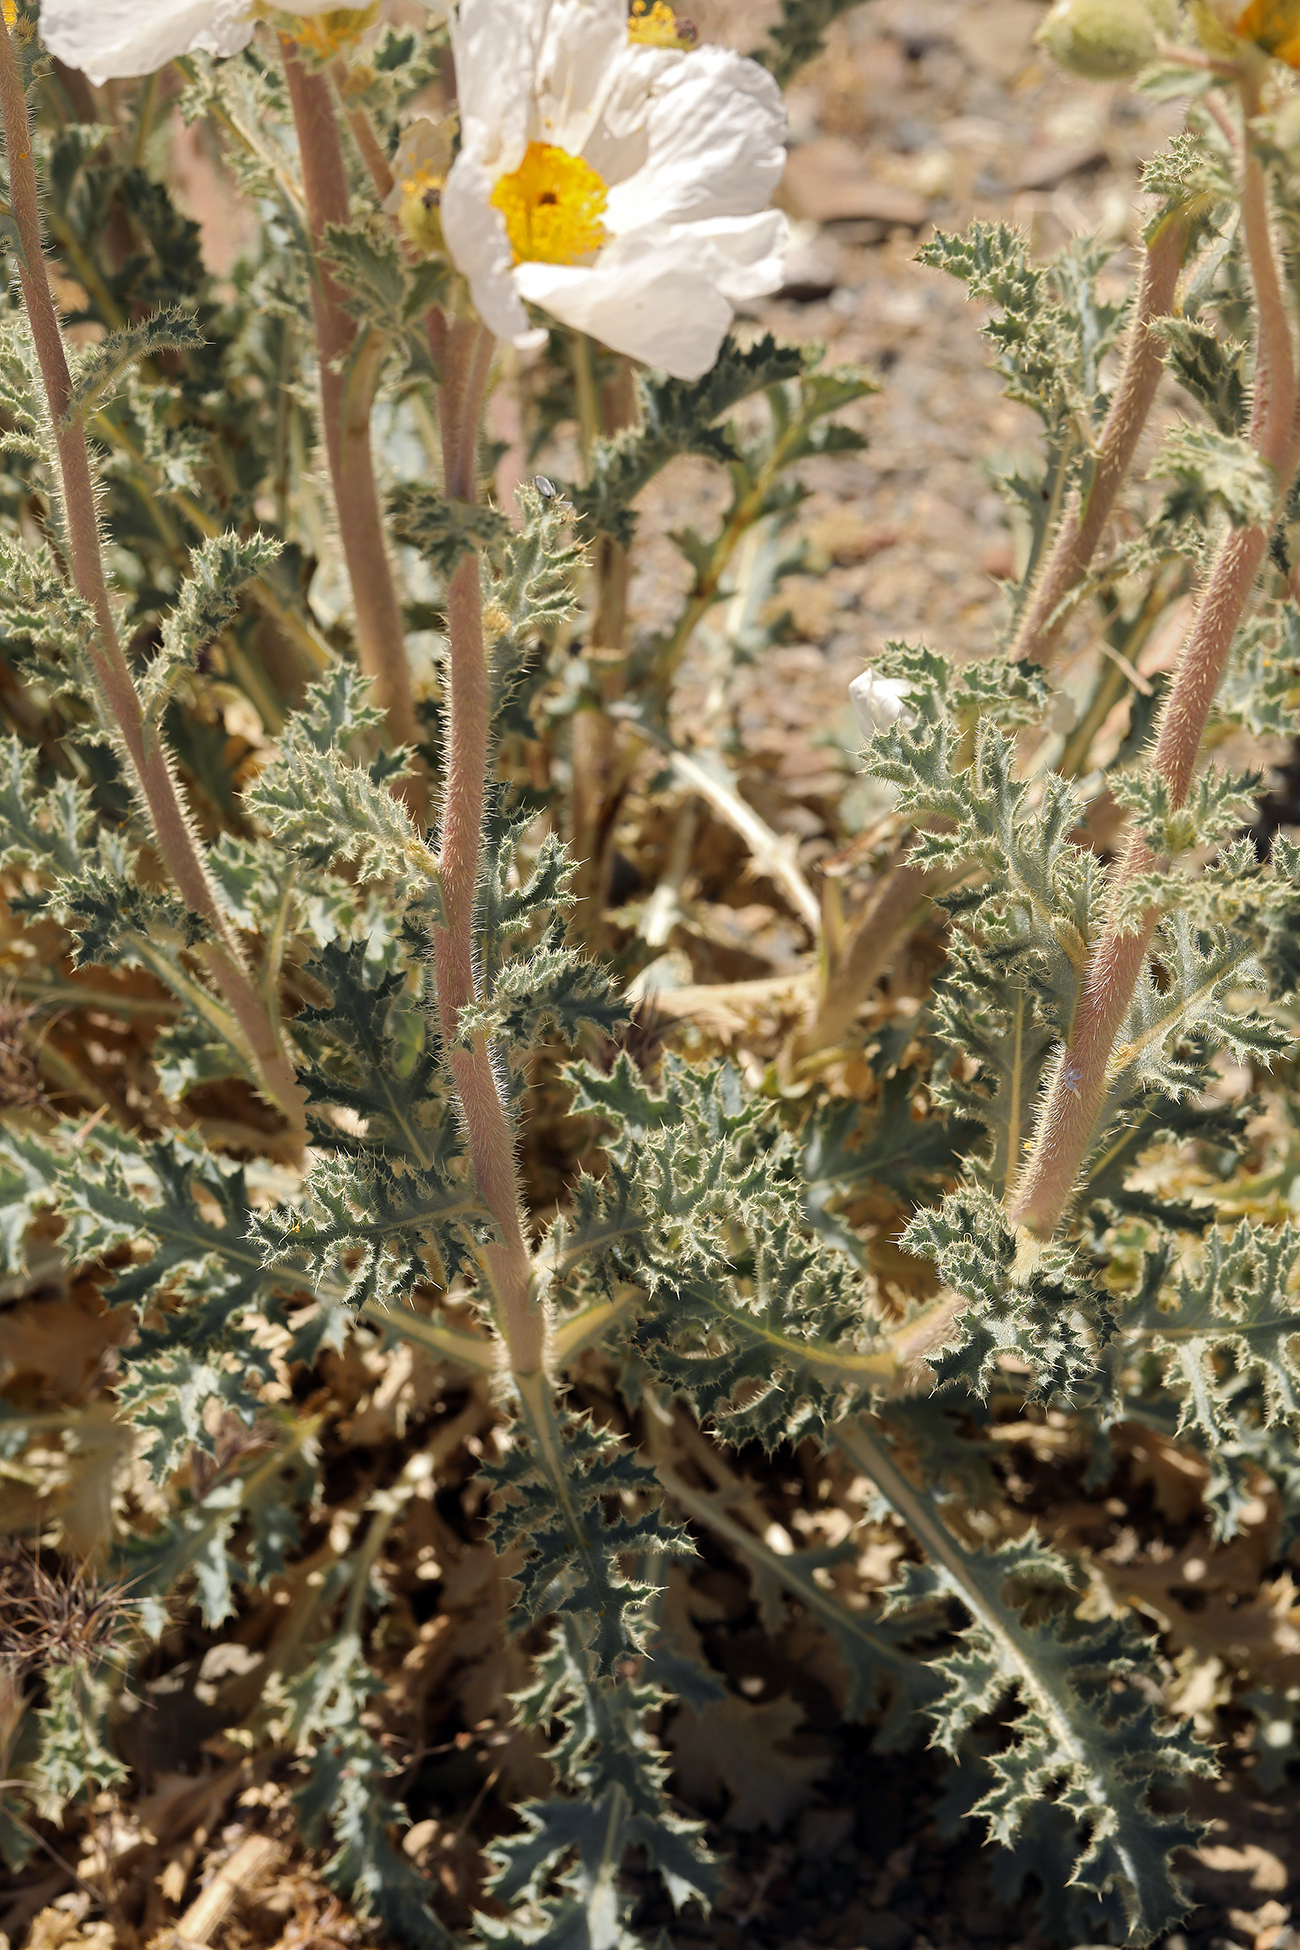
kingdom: Plantae
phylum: Tracheophyta
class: Magnoliopsida
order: Ranunculales
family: Papaveraceae
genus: Argemone
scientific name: Argemone munita
